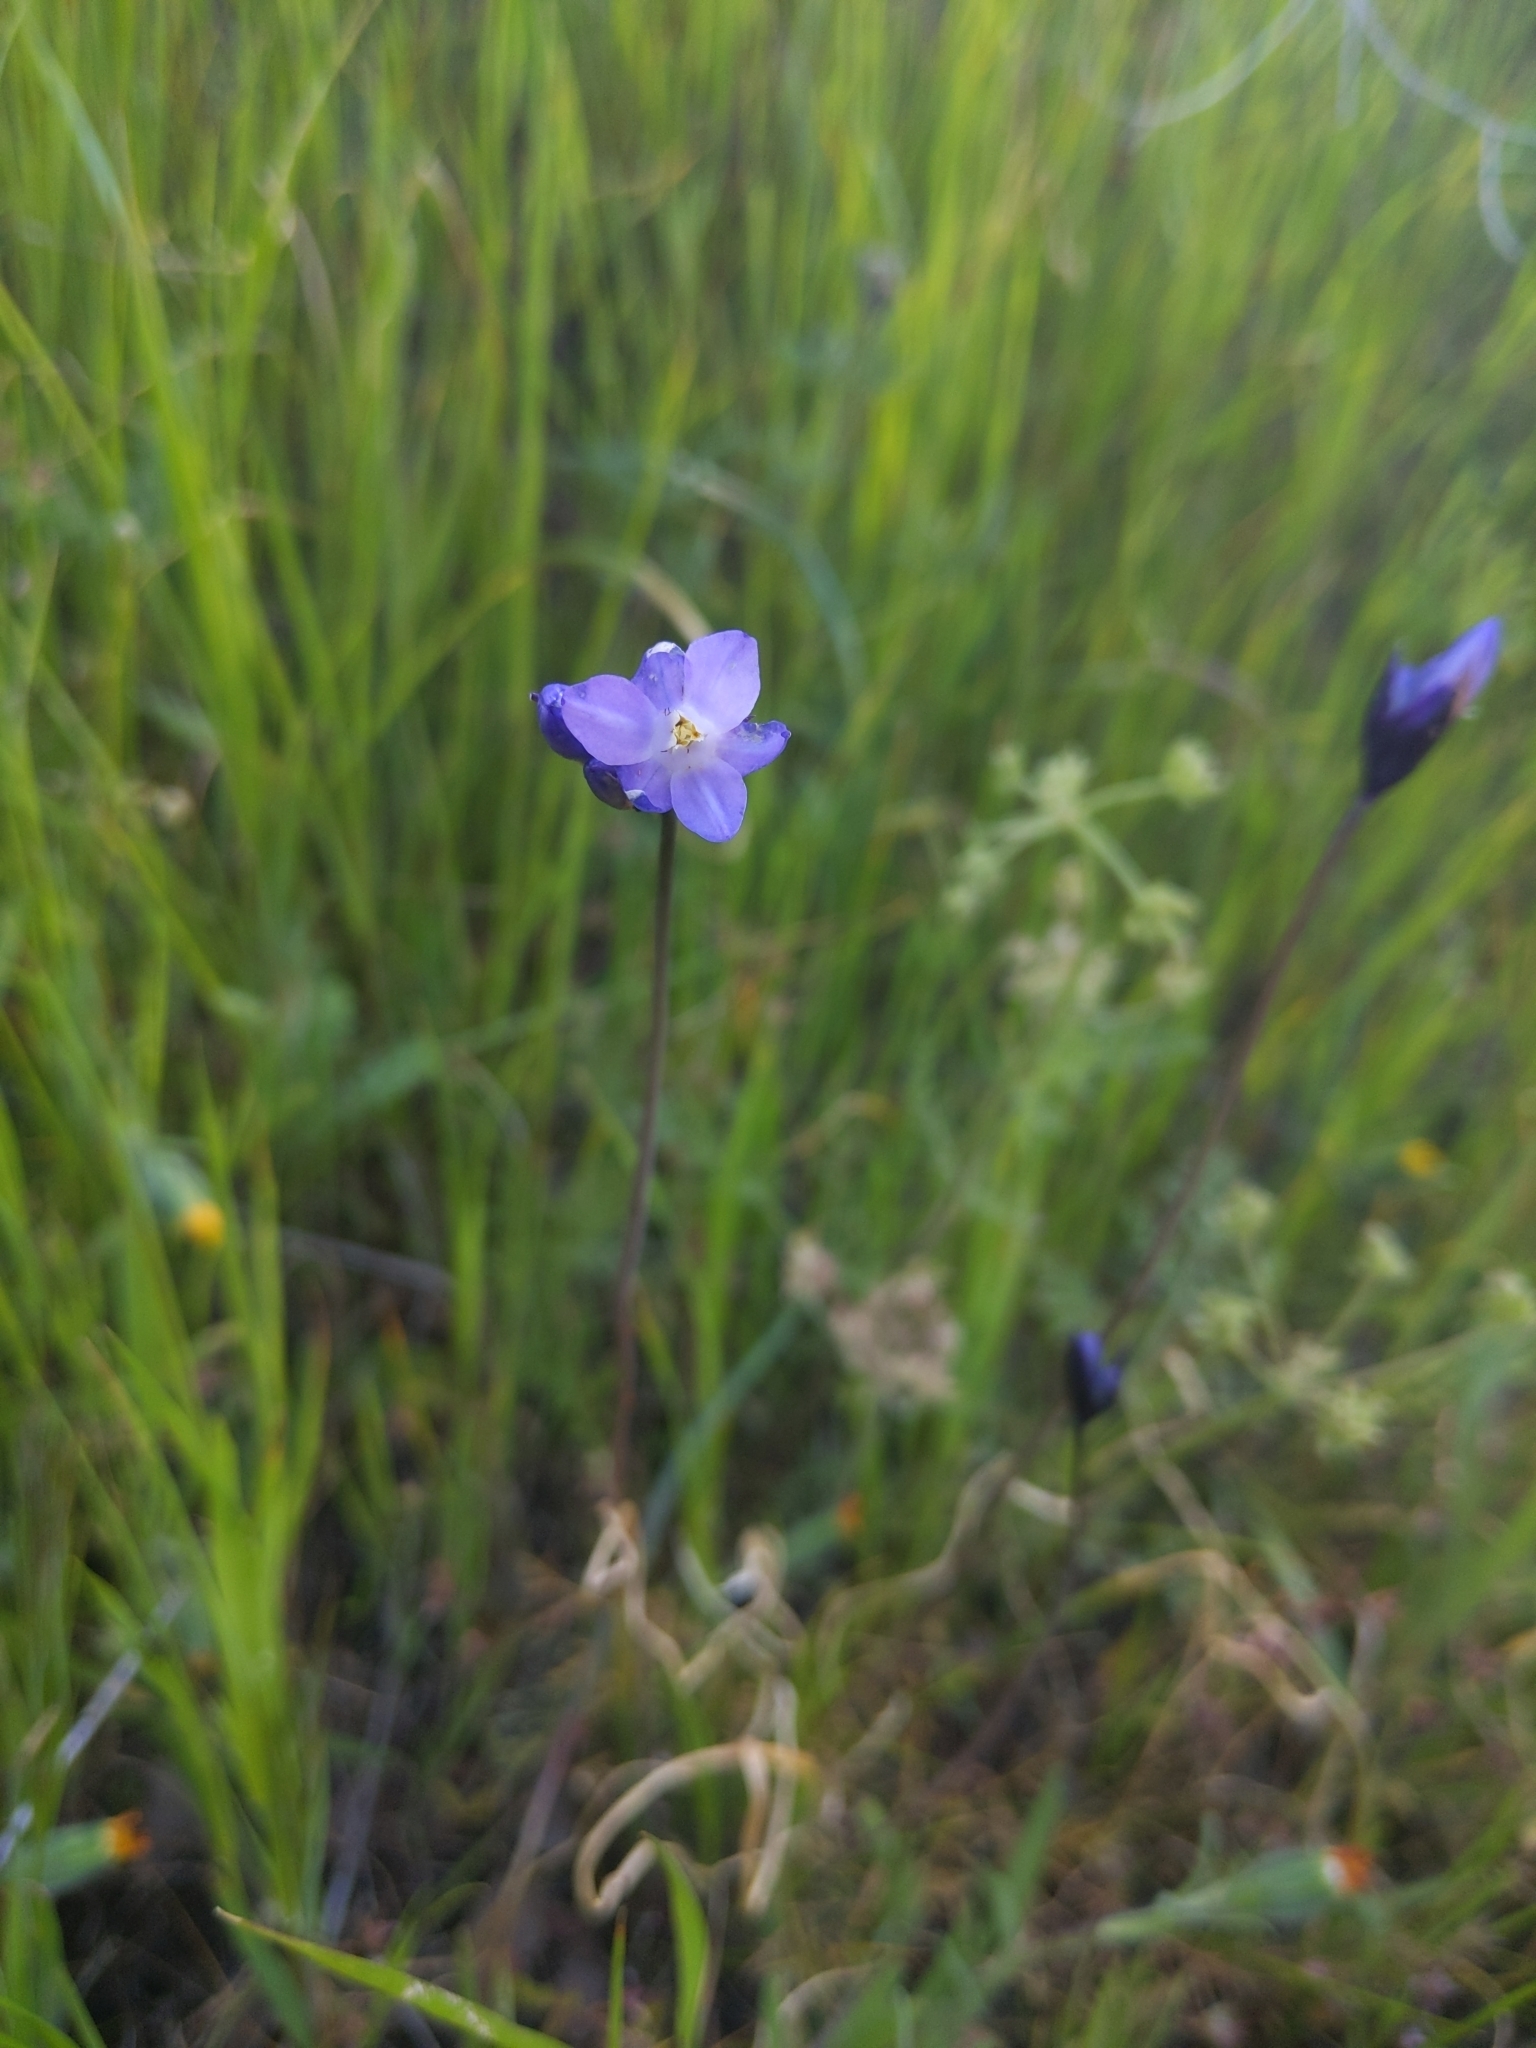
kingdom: Plantae
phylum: Tracheophyta
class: Liliopsida
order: Asparagales
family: Asparagaceae
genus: Dipterostemon
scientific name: Dipterostemon capitatus
